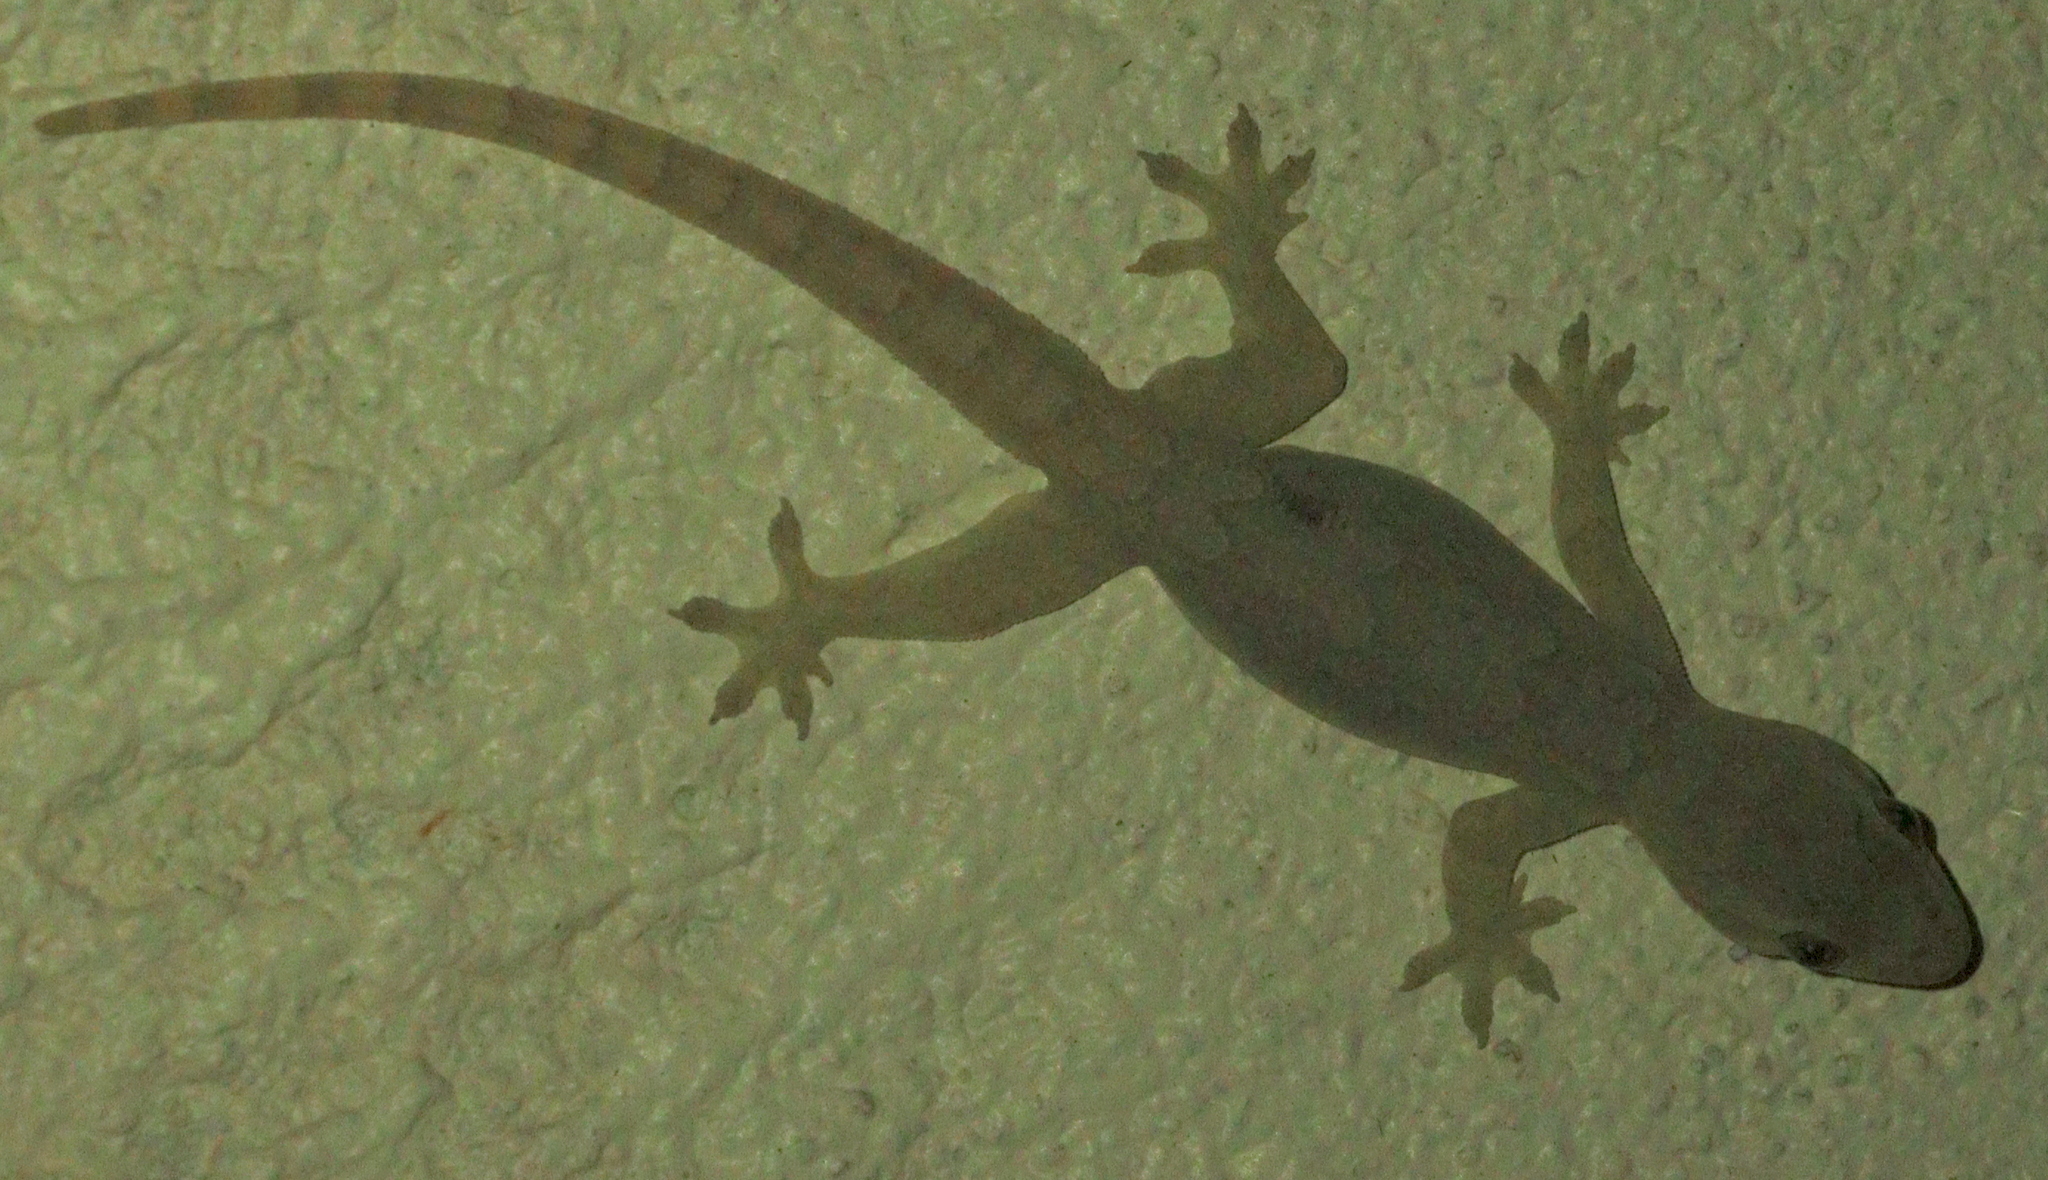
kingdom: Animalia
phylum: Chordata
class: Squamata
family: Gekkonidae
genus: Hemidactylus
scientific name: Hemidactylus platyurus
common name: Flat-tailed house gecko
